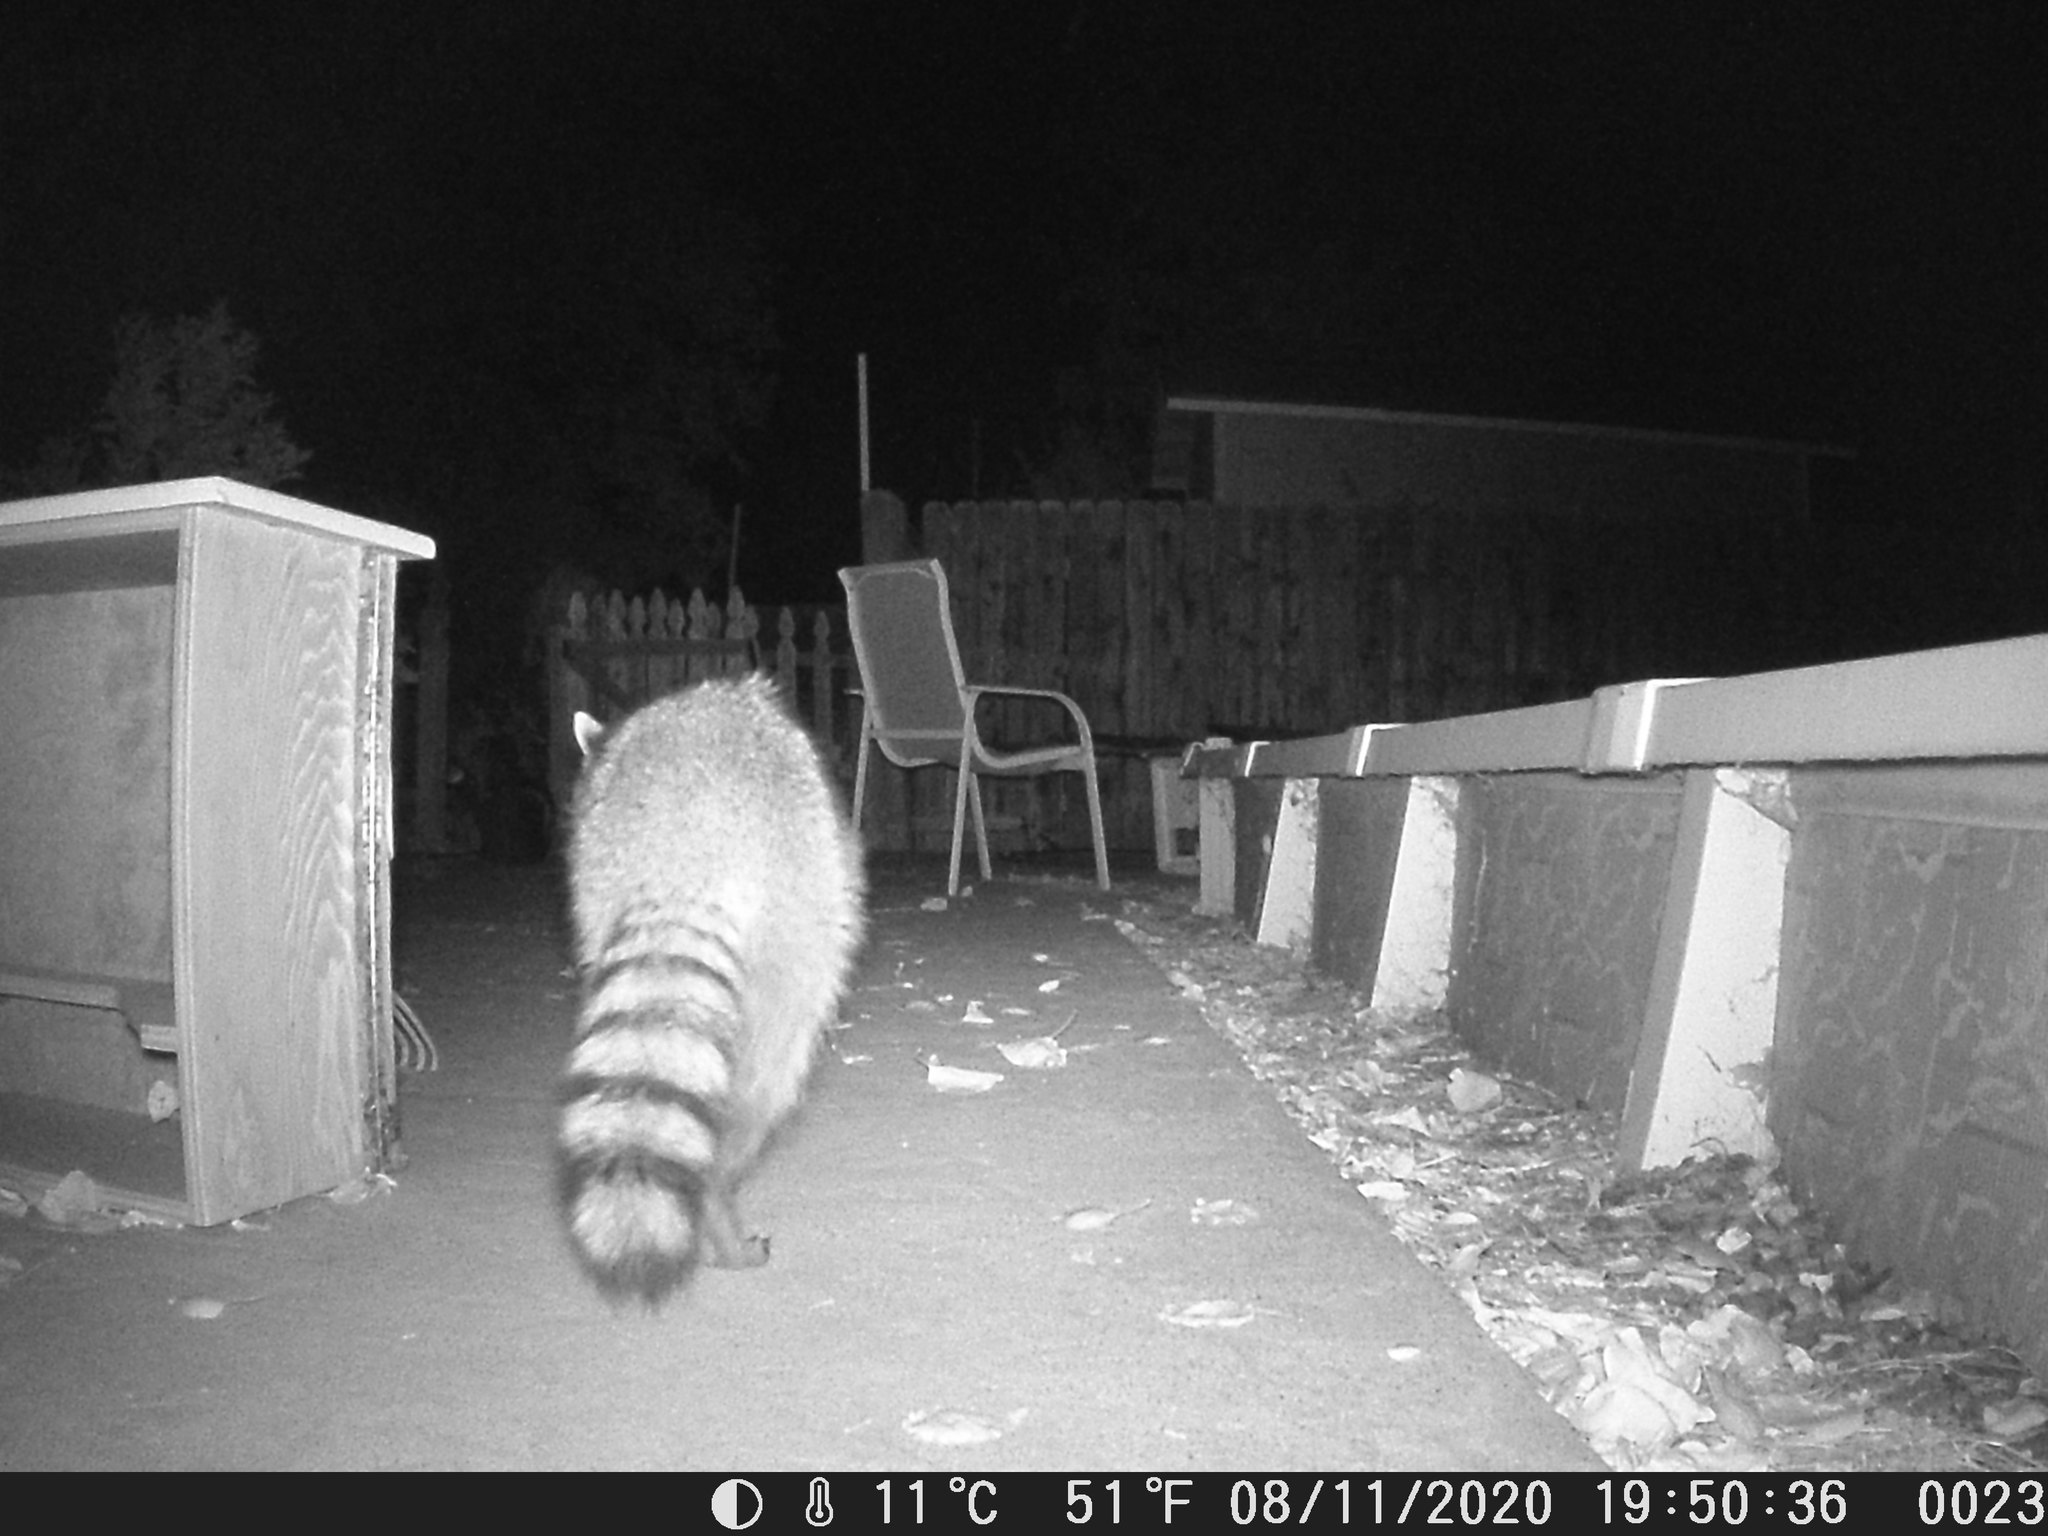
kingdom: Animalia
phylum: Chordata
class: Mammalia
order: Carnivora
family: Procyonidae
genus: Procyon
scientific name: Procyon lotor
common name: Raccoon
